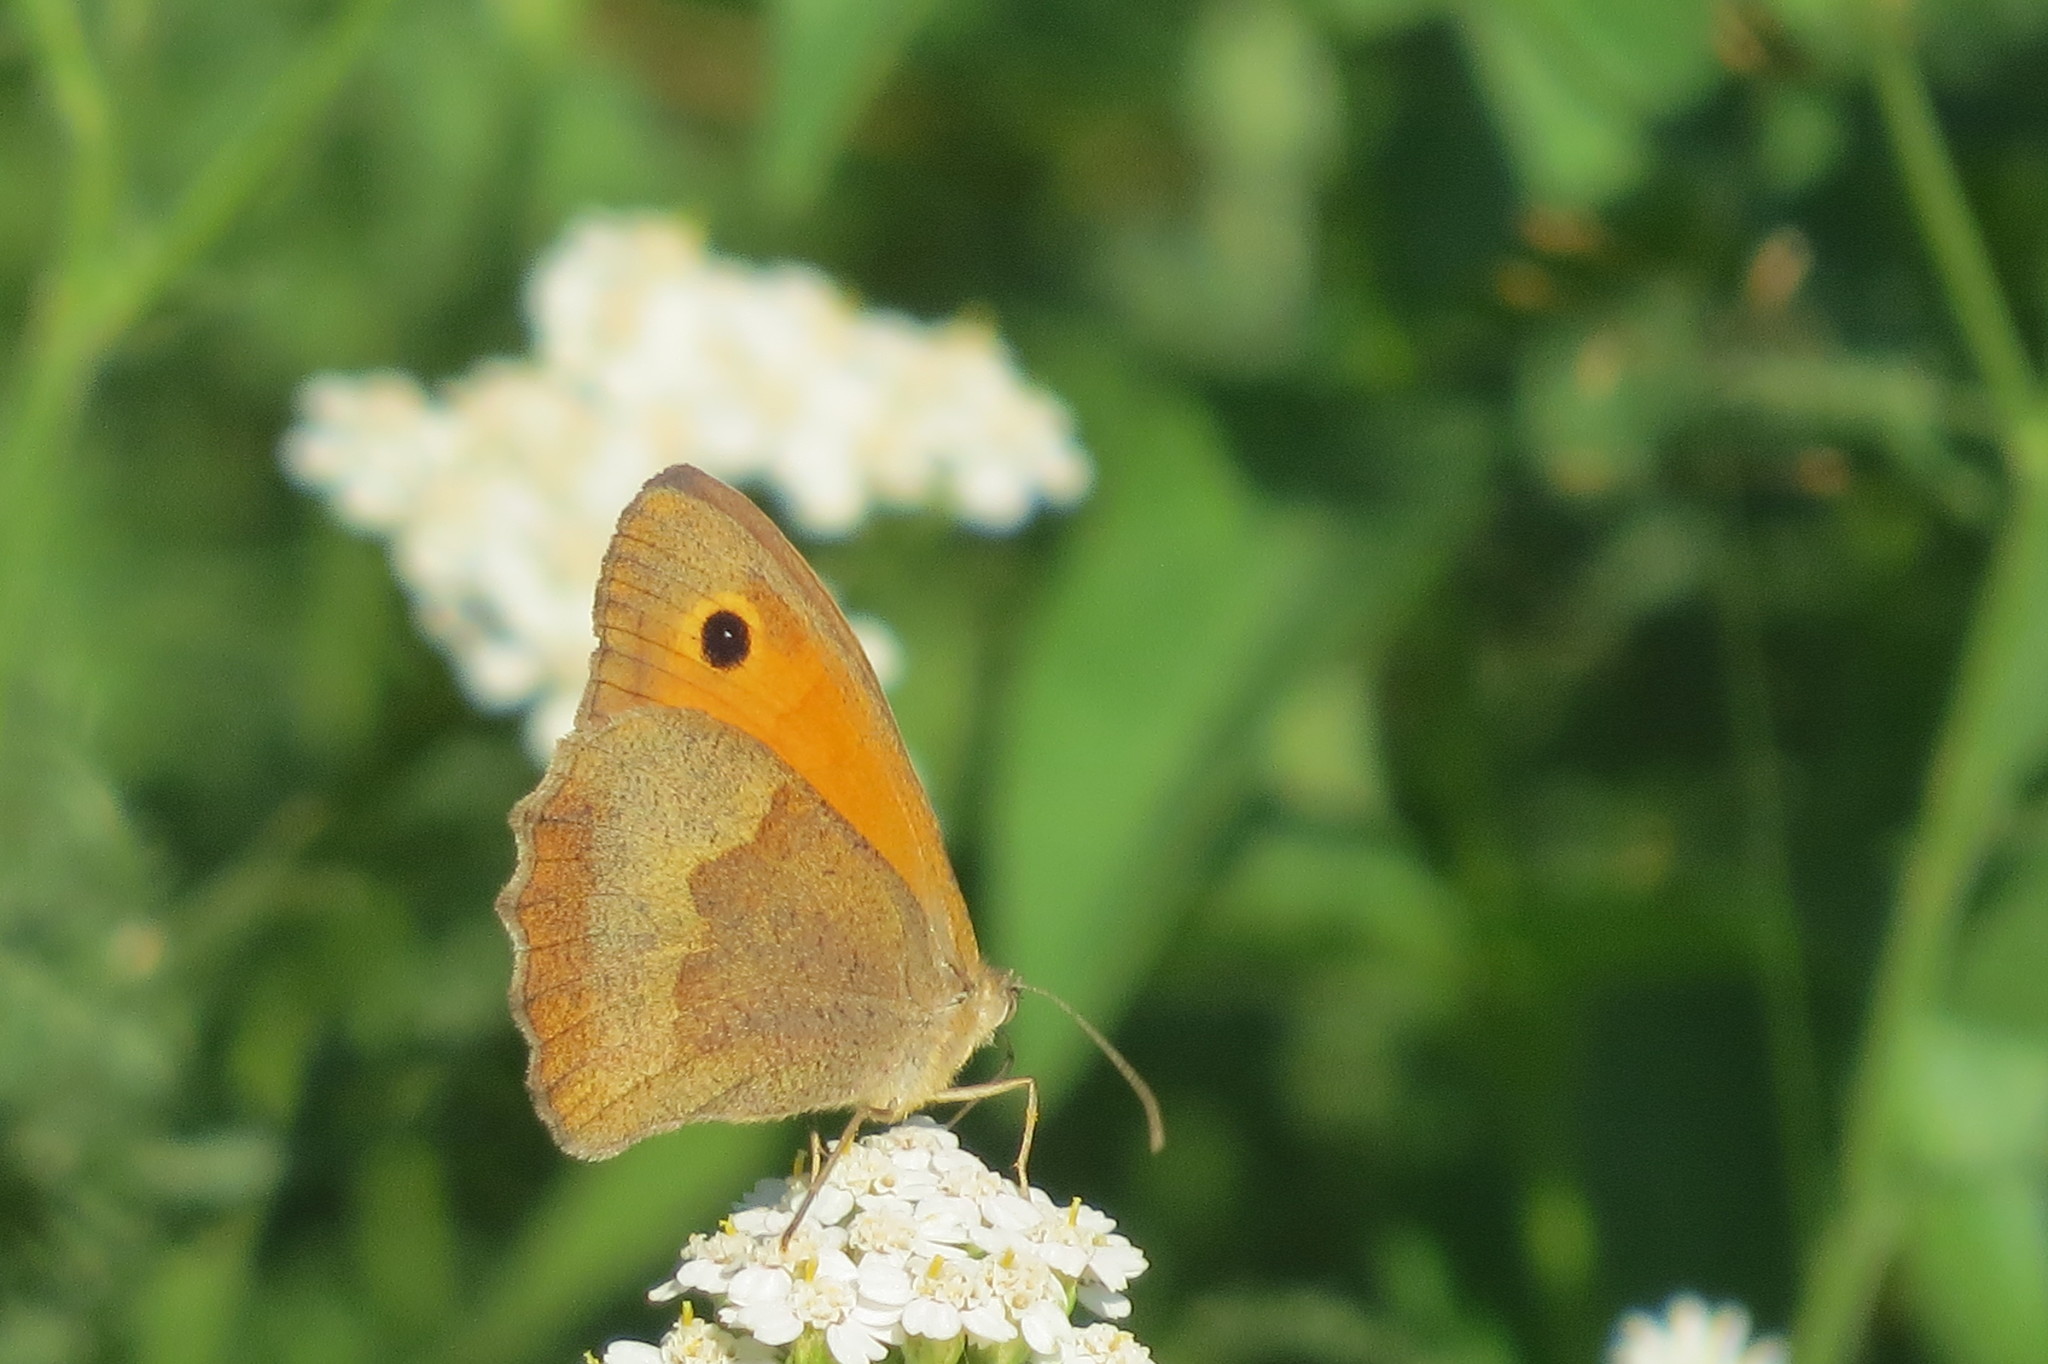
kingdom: Animalia
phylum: Arthropoda
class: Insecta
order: Lepidoptera
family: Nymphalidae
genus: Maniola
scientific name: Maniola jurtina
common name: Meadow brown
